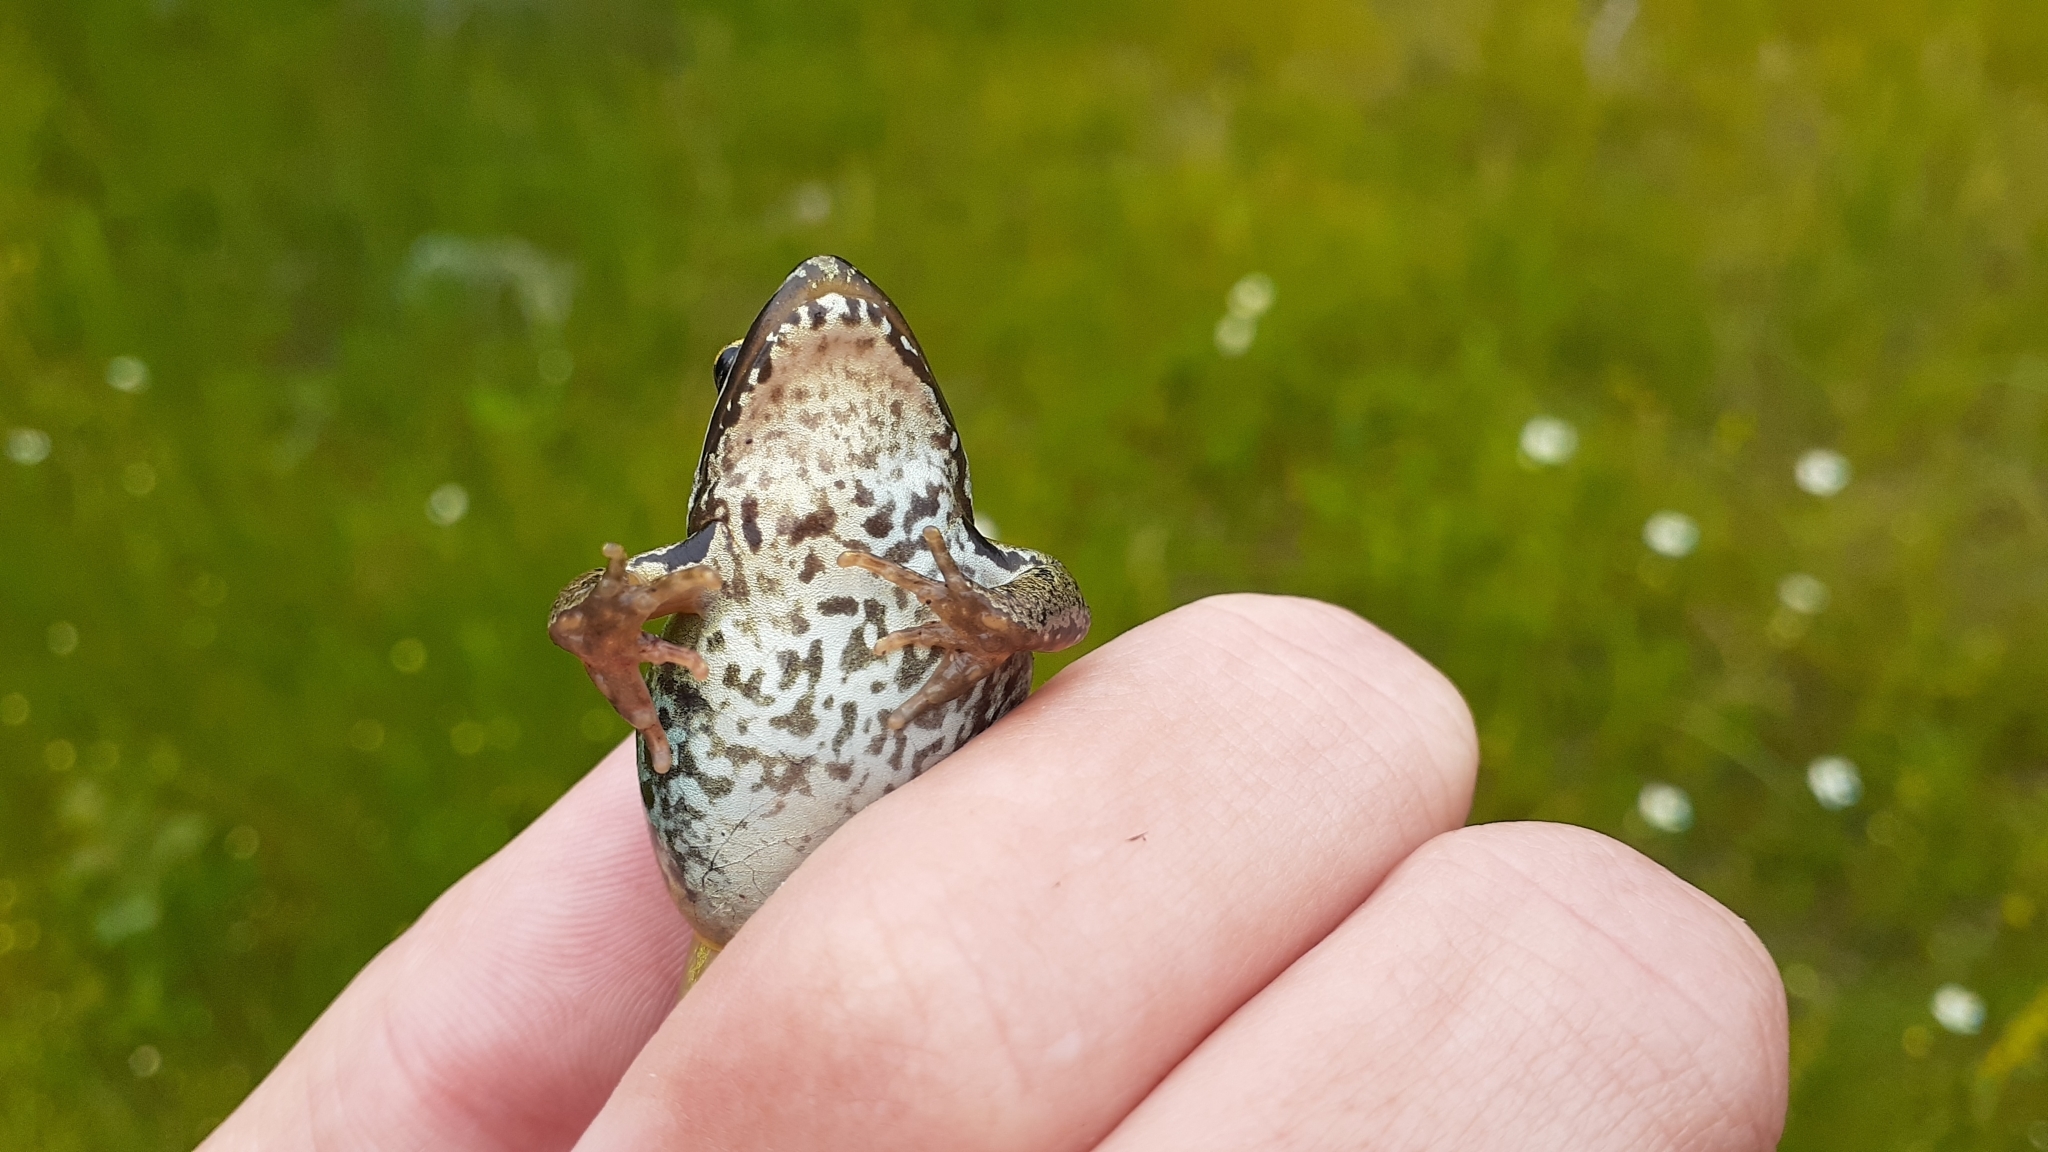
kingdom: Animalia
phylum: Chordata
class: Amphibia
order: Anura
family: Ranidae
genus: Lithobates
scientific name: Lithobates sylvaticus
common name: Wood frog
